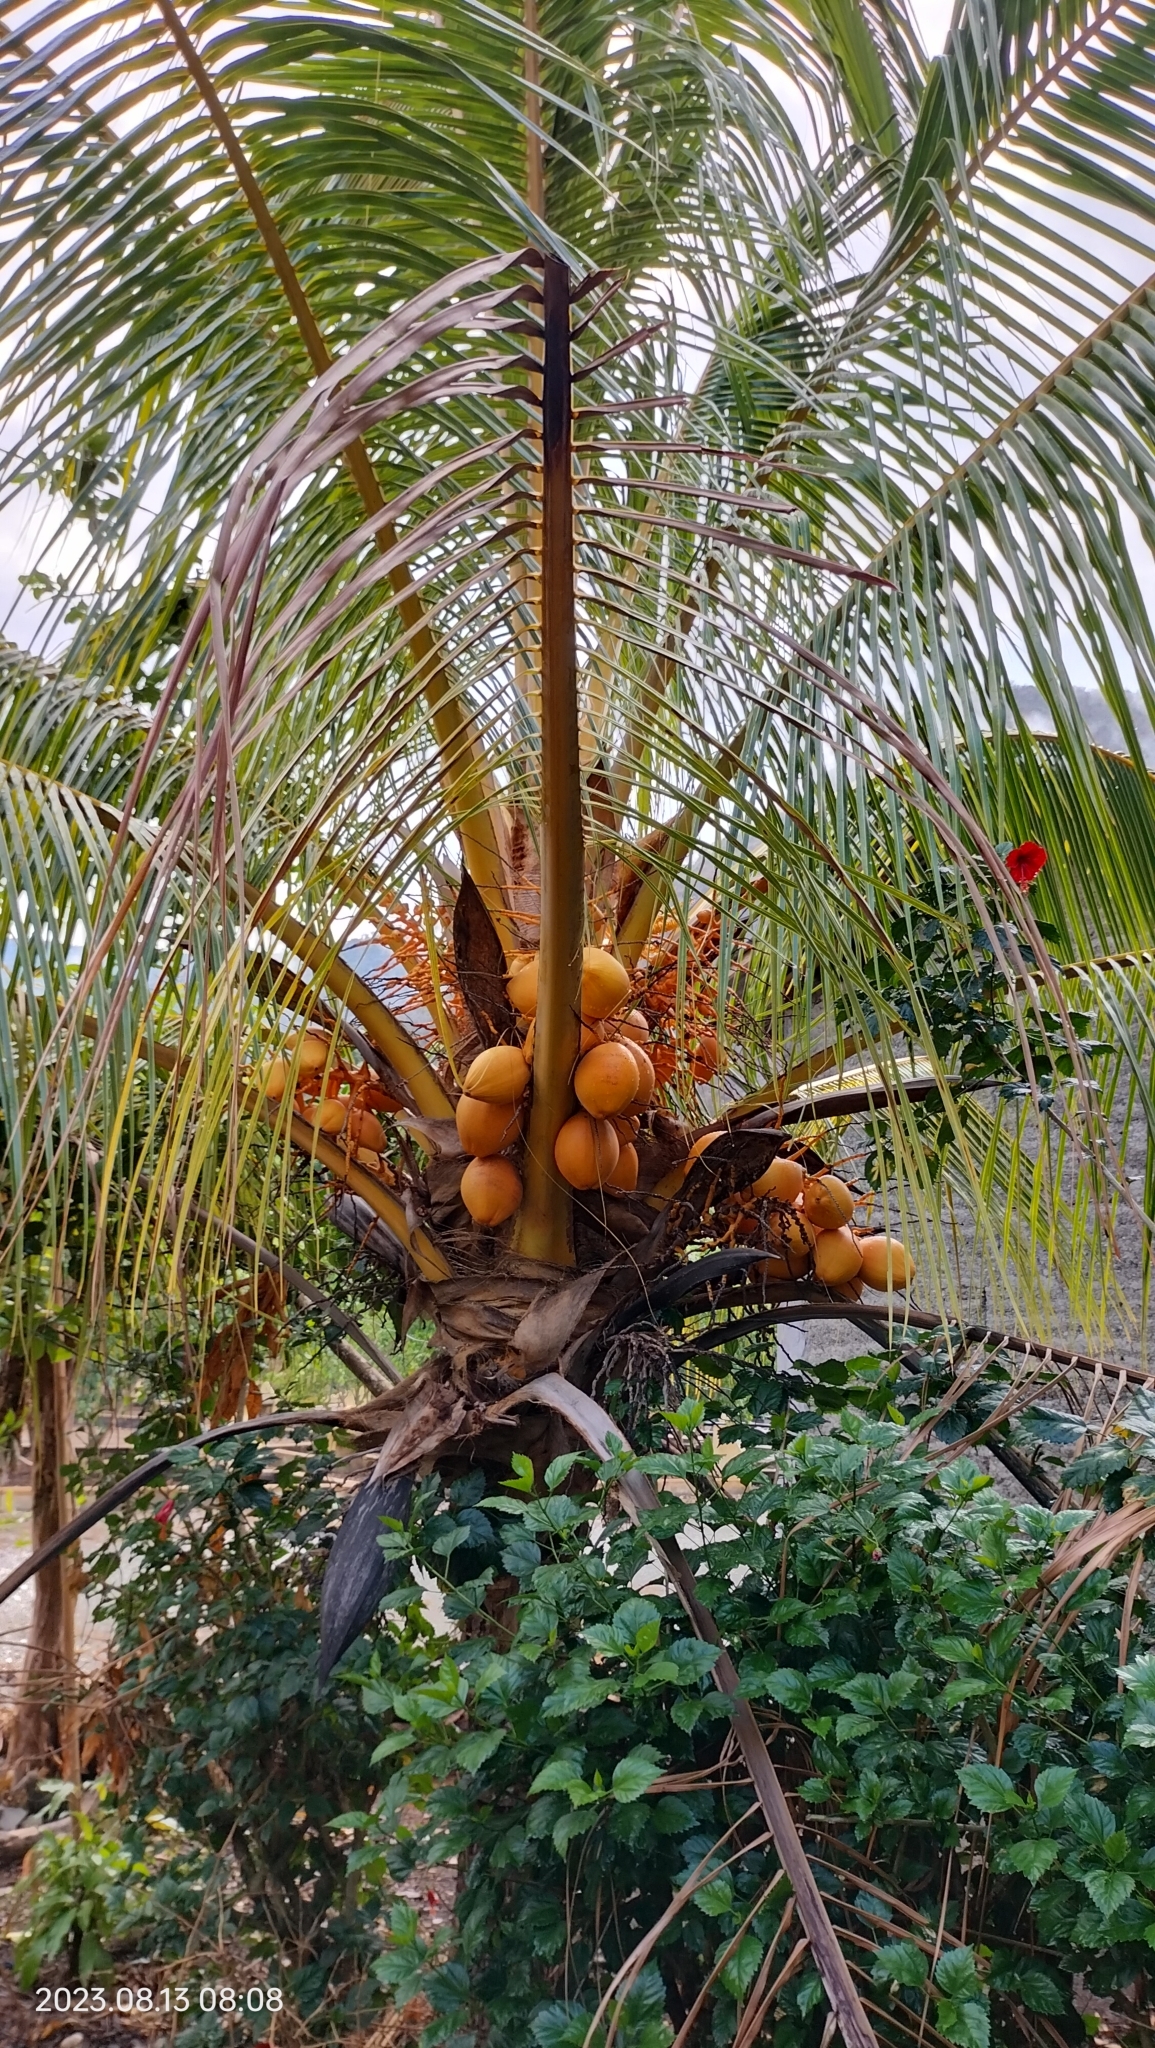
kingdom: Plantae
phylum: Tracheophyta
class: Liliopsida
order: Arecales
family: Arecaceae
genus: Cocos
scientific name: Cocos nucifera
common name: Coconut palm
